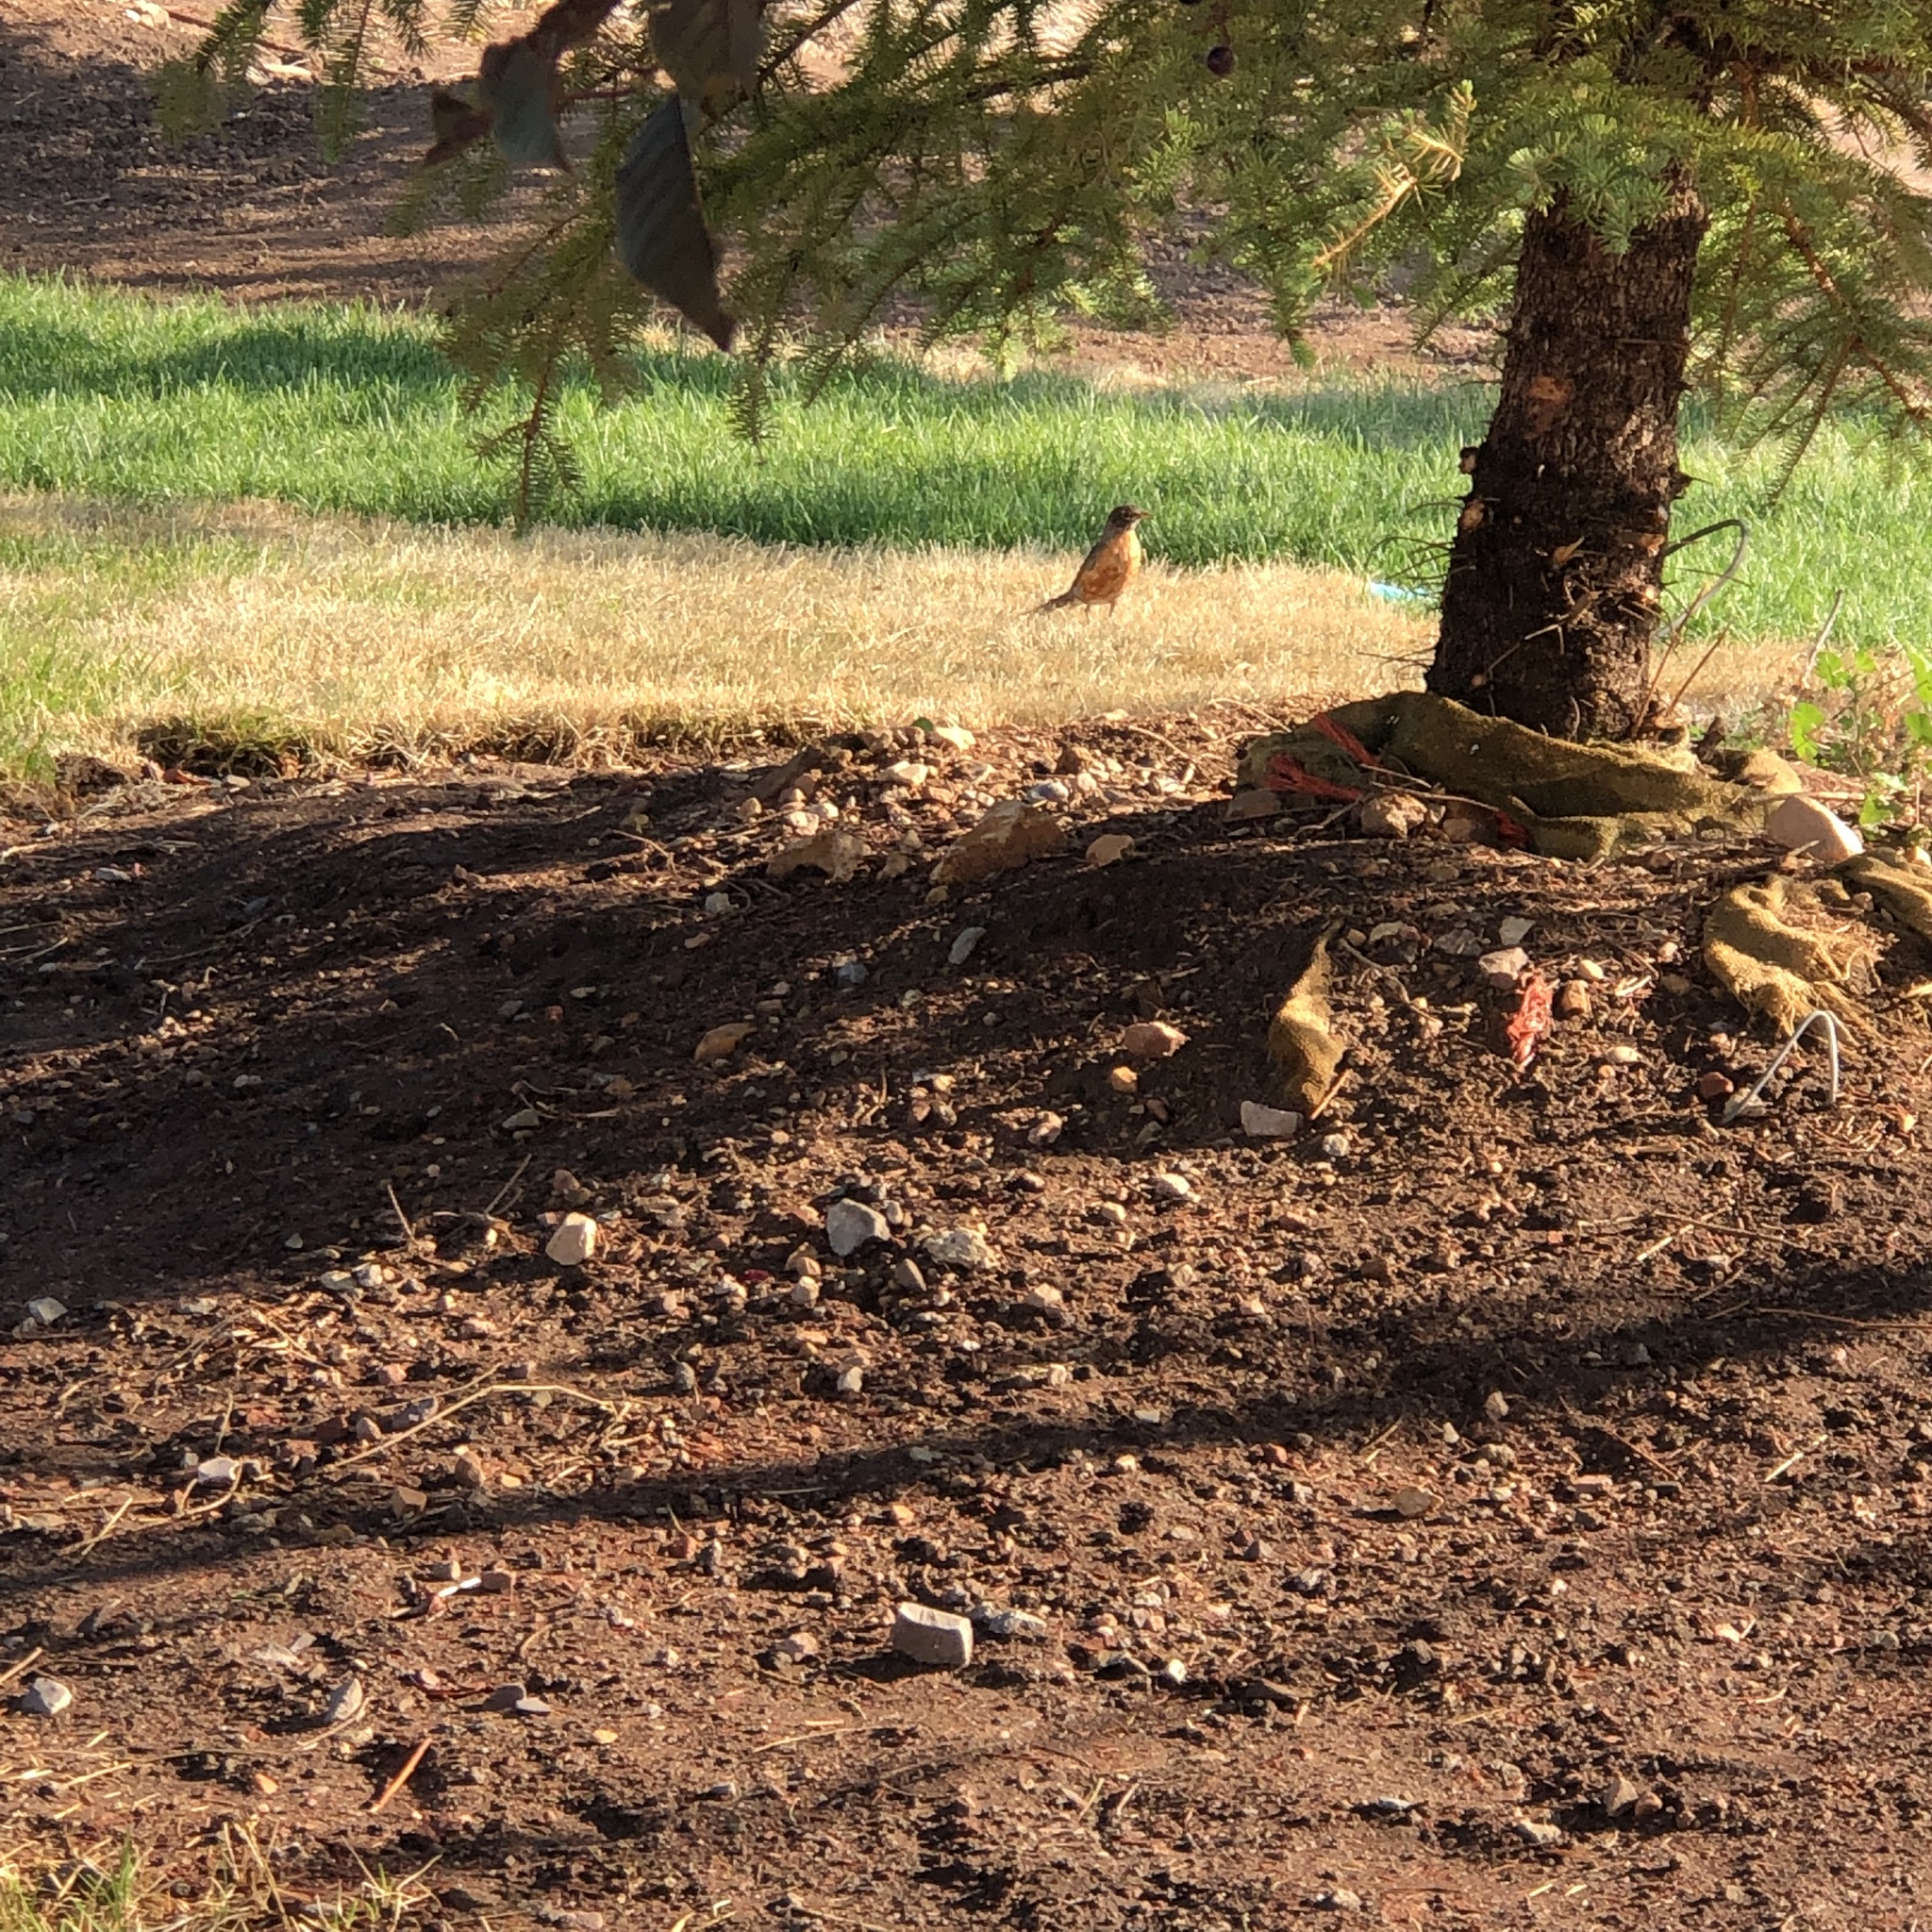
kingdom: Animalia
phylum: Chordata
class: Aves
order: Passeriformes
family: Turdidae
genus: Turdus
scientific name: Turdus migratorius
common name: American robin
